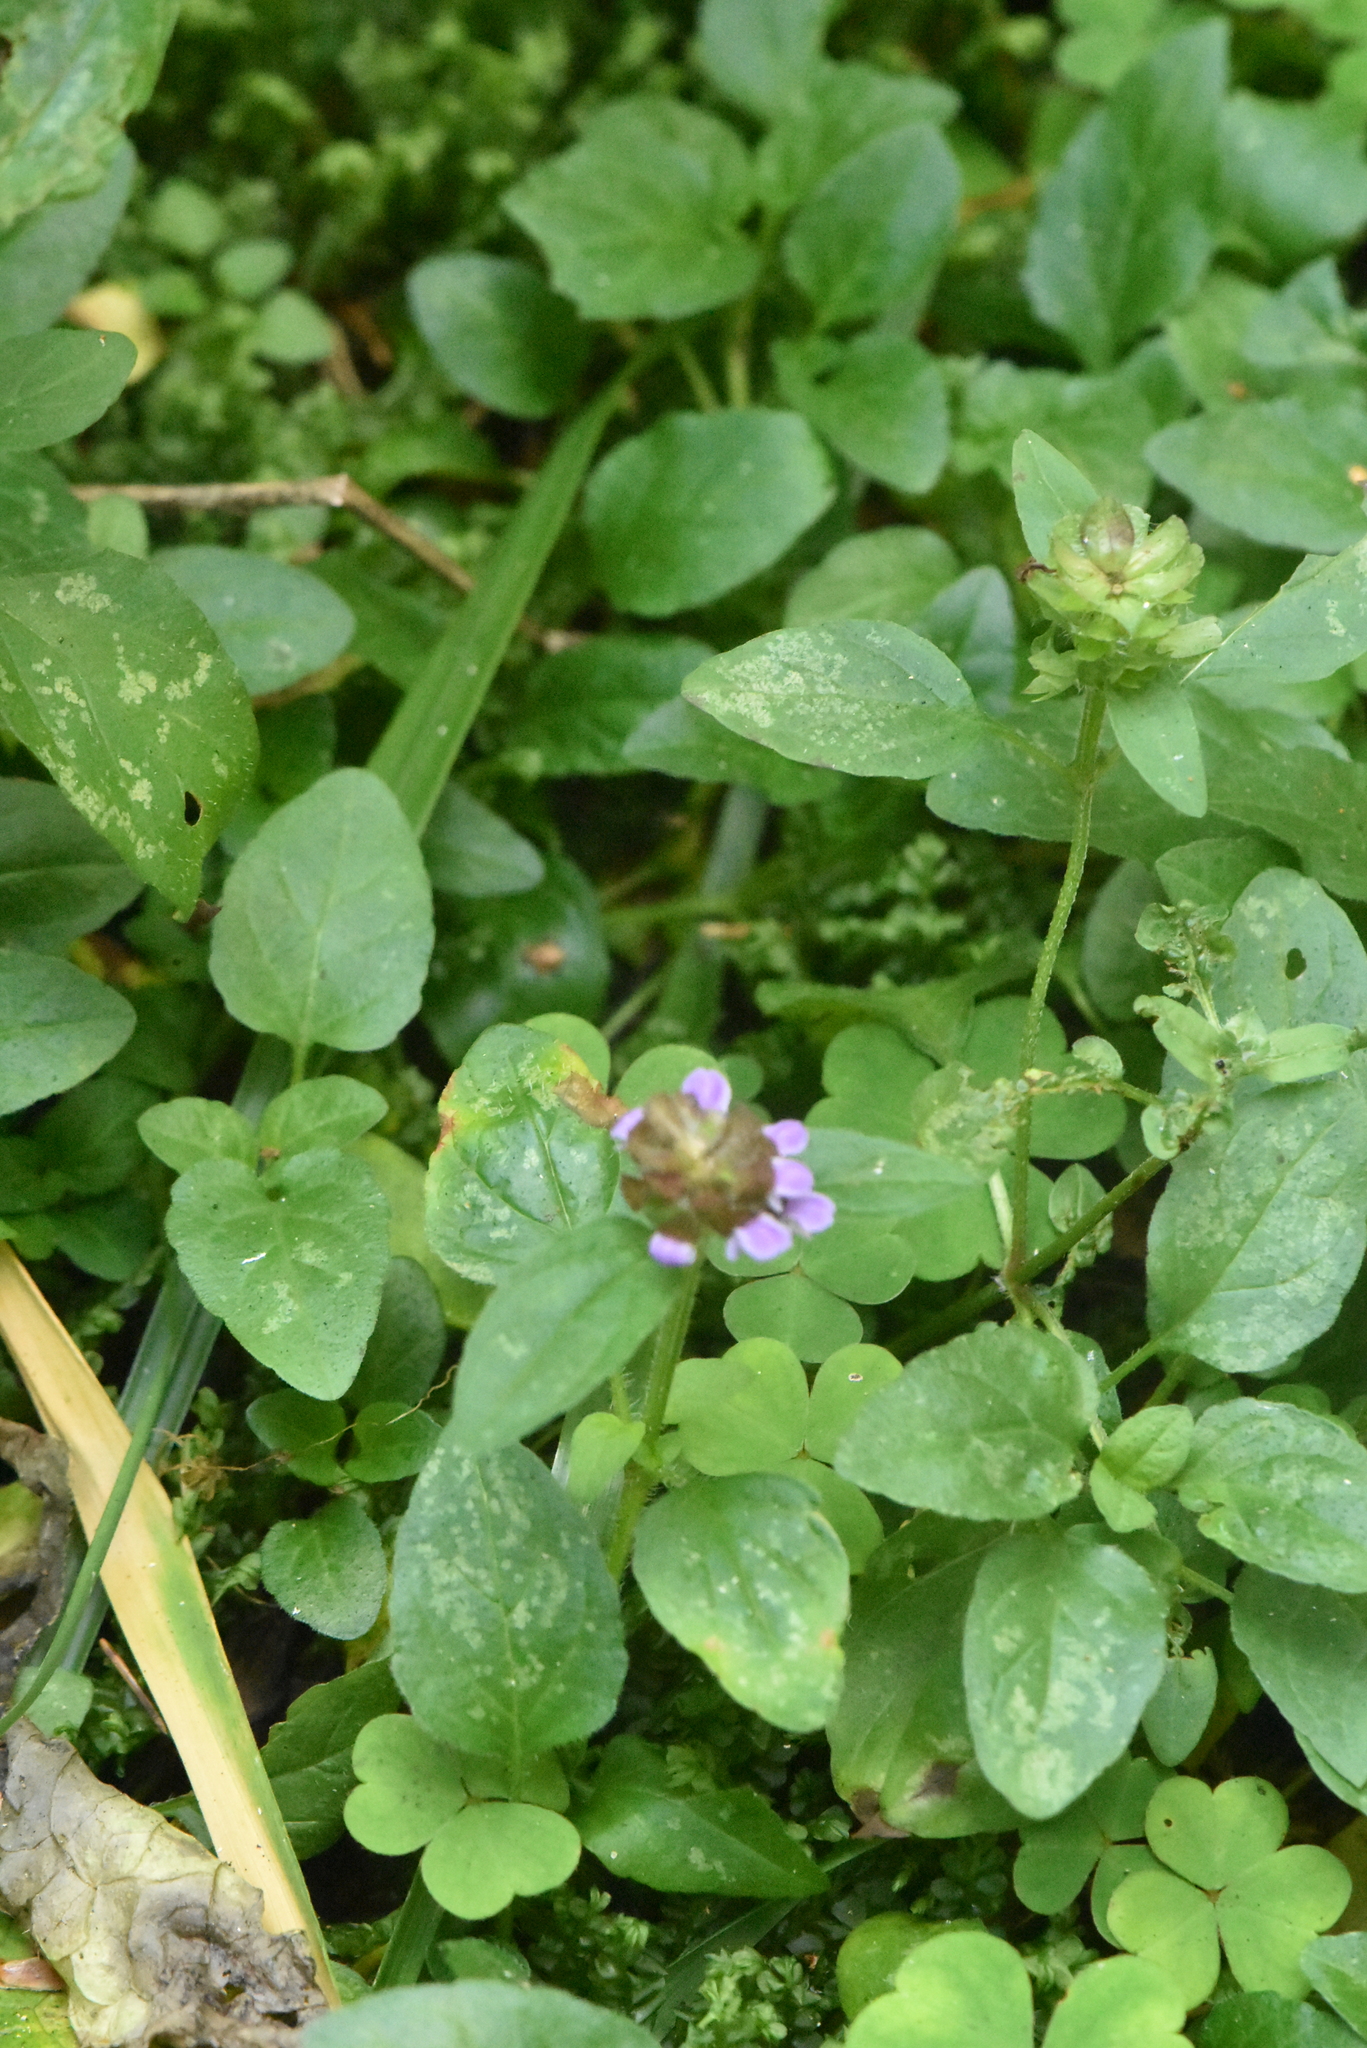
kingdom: Plantae
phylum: Tracheophyta
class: Magnoliopsida
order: Lamiales
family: Lamiaceae
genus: Prunella
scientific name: Prunella vulgaris
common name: Heal-all
